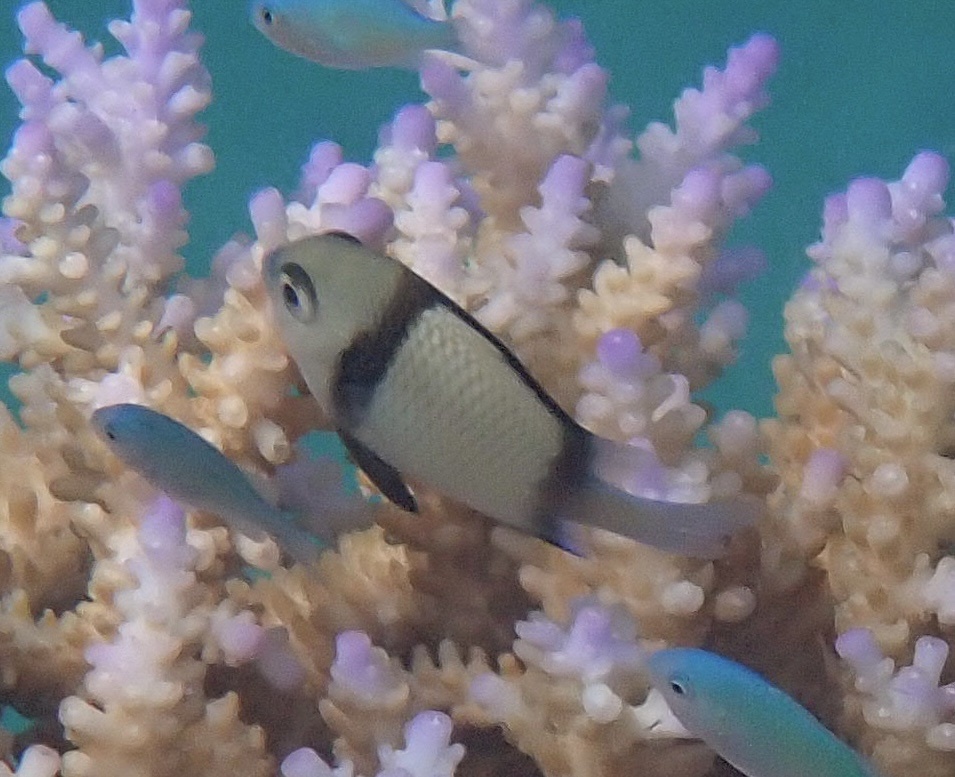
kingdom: Animalia
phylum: Chordata
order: Perciformes
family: Pomacentridae
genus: Dascyllus
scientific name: Dascyllus reticulatus
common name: Reticulated dascyllus
